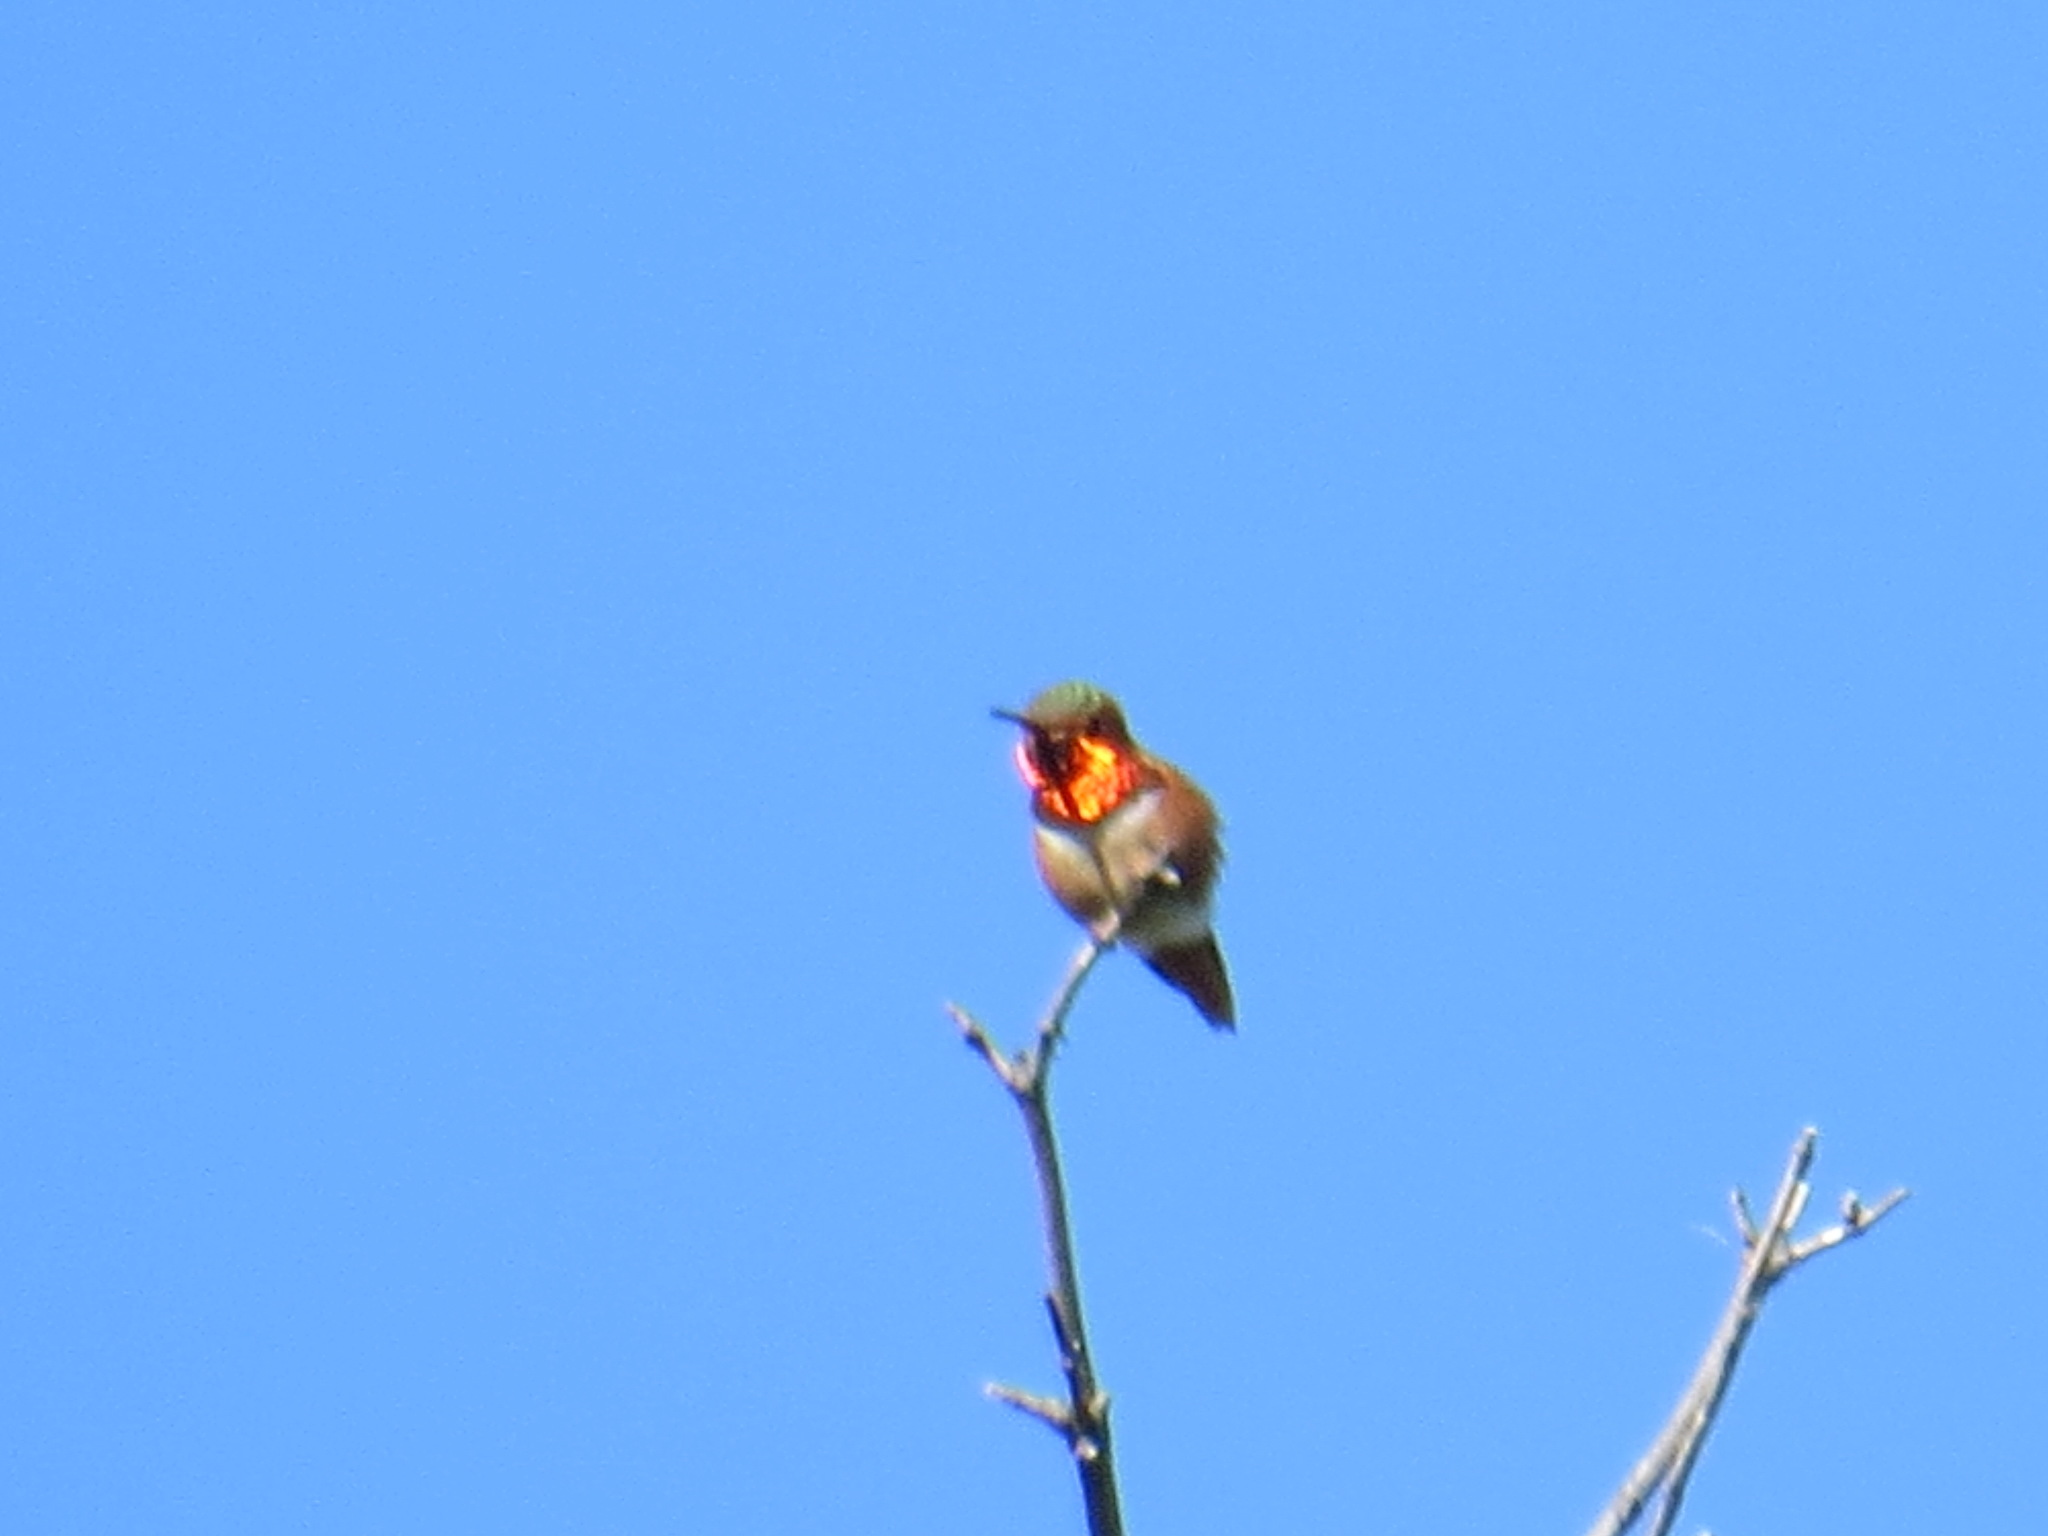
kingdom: Animalia
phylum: Chordata
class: Aves
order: Apodiformes
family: Trochilidae
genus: Selasphorus
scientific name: Selasphorus sasin
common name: Allen's hummingbird
